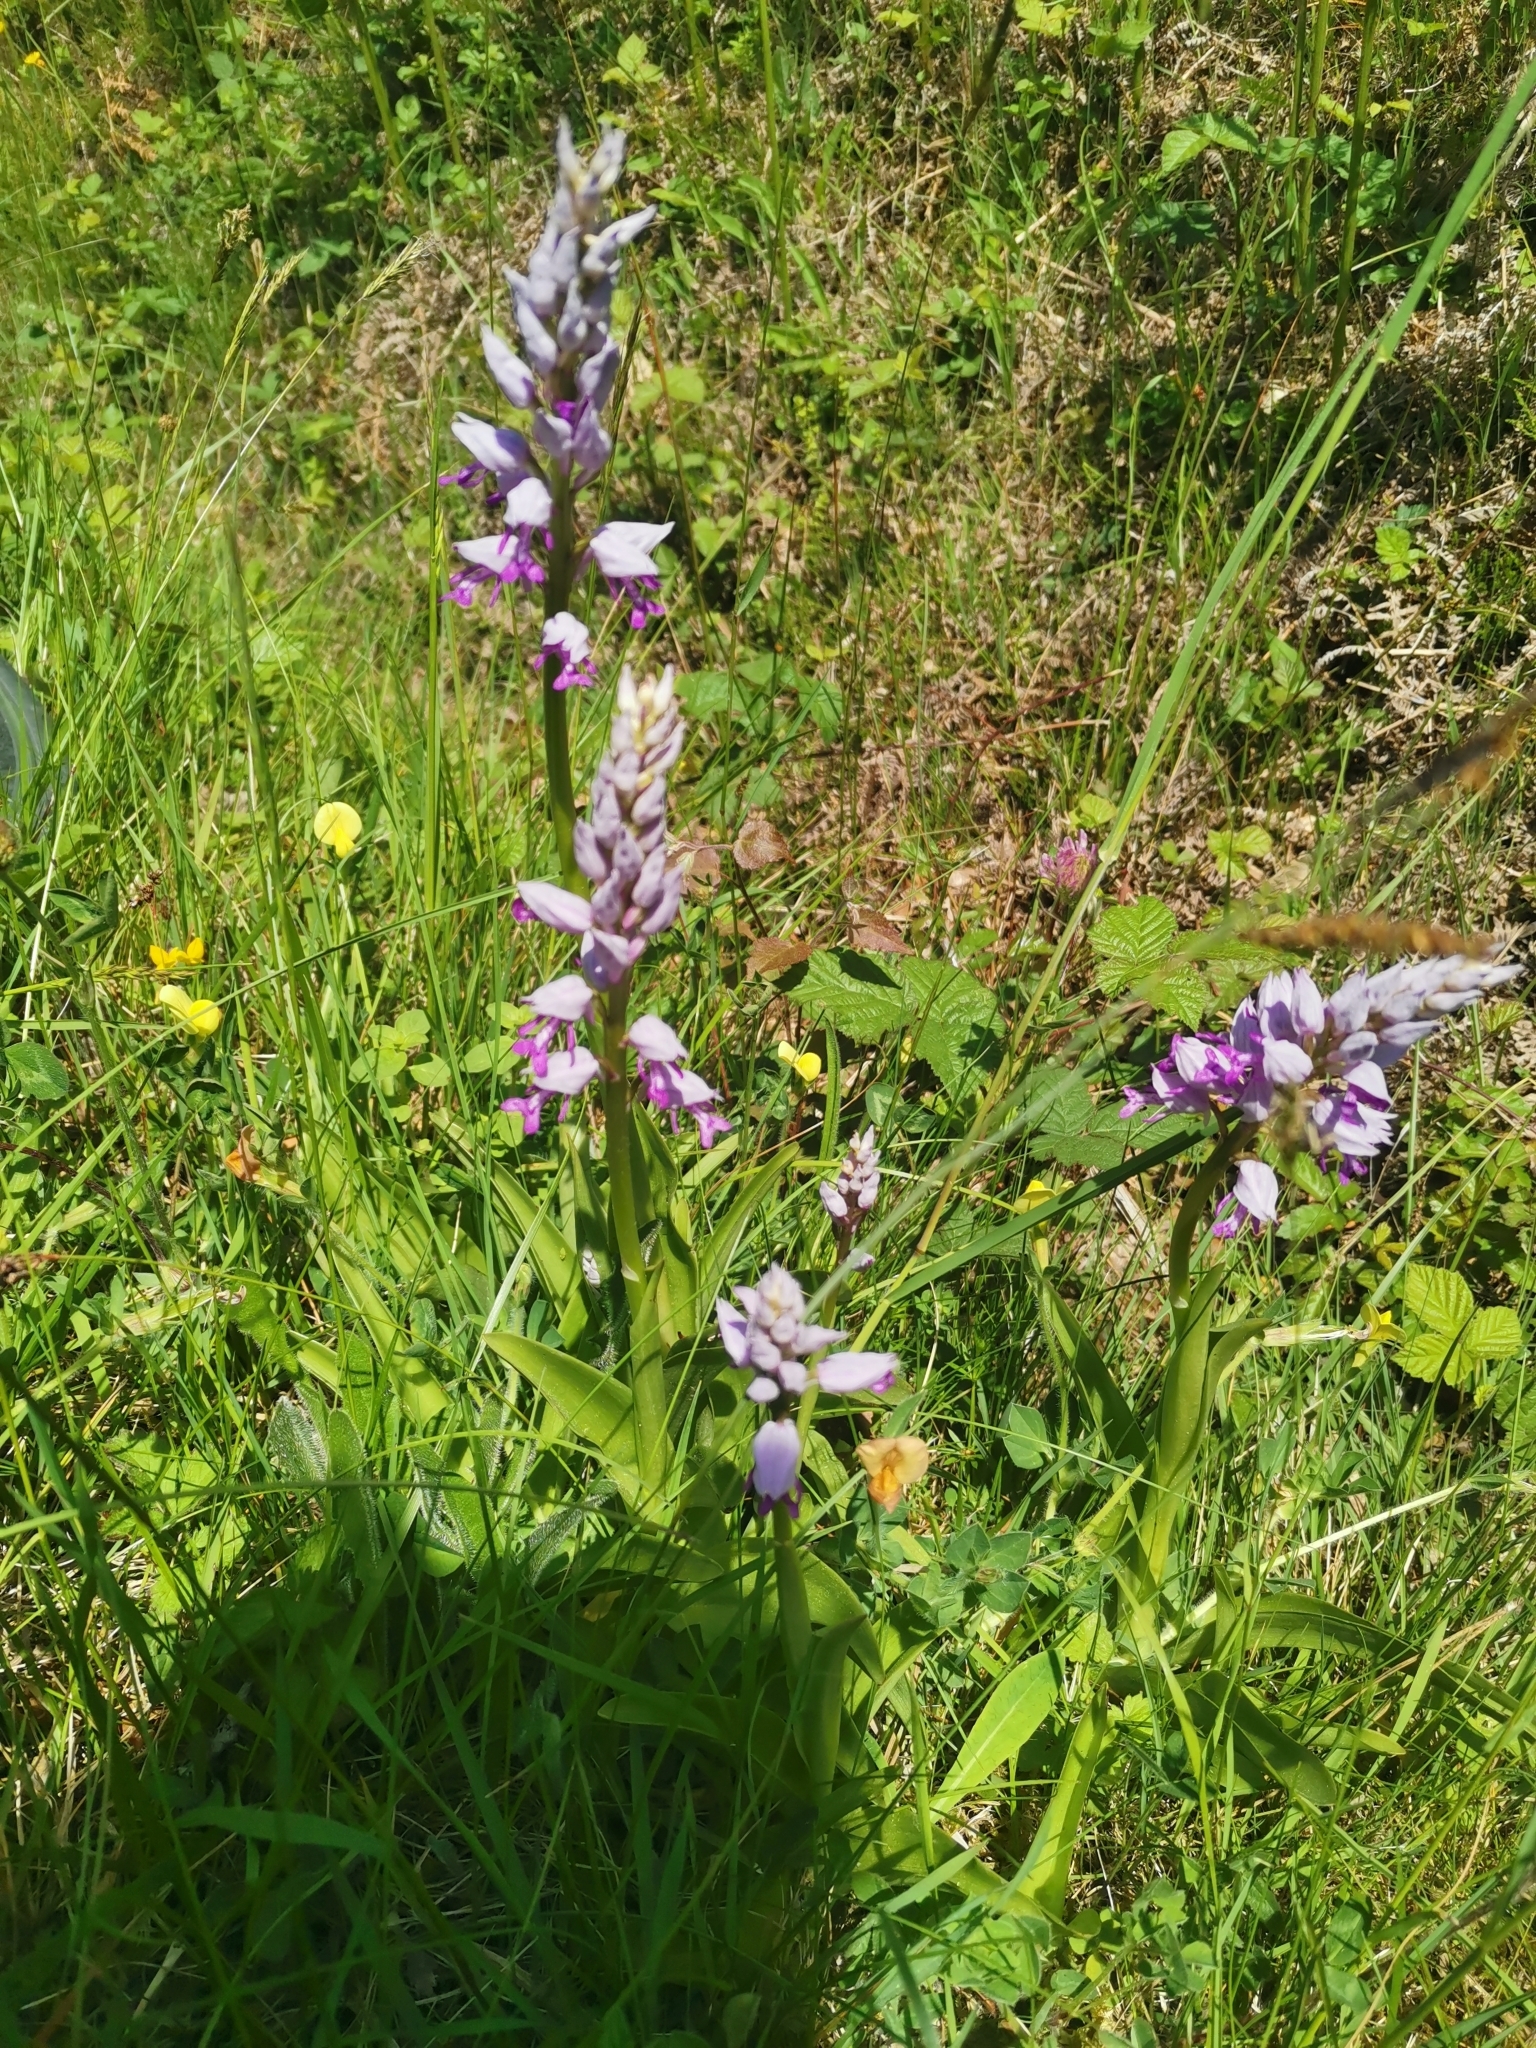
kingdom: Plantae
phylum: Tracheophyta
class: Liliopsida
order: Asparagales
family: Orchidaceae
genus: Orchis
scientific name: Orchis militaris
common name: Military orchid
